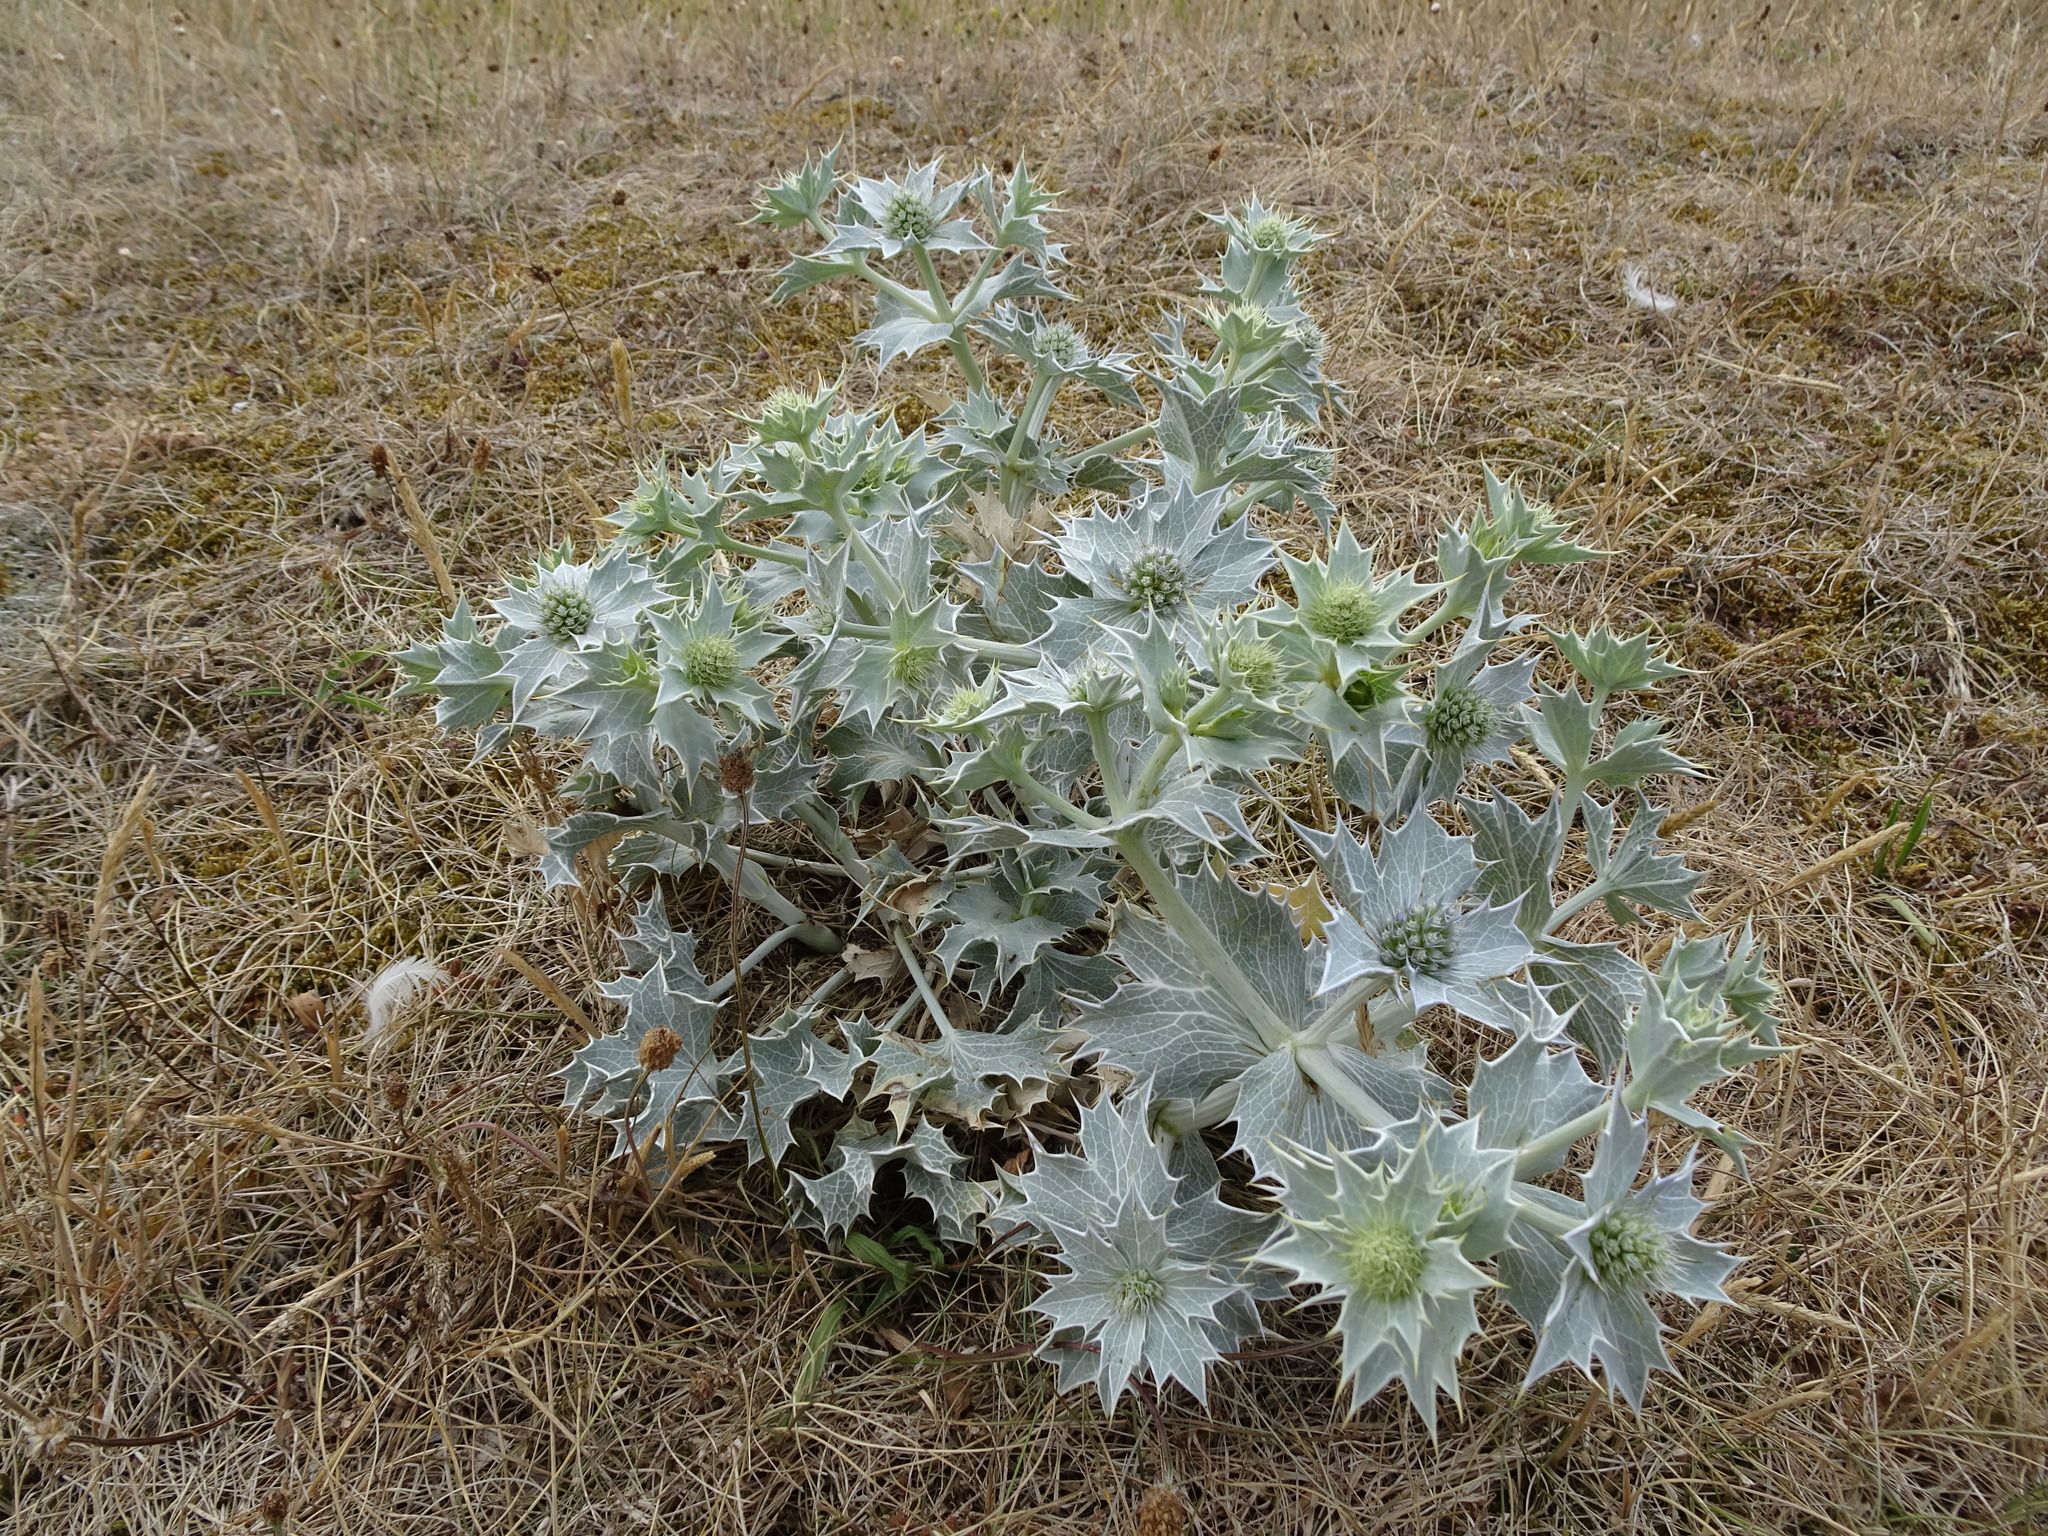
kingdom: Plantae
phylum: Tracheophyta
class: Magnoliopsida
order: Apiales
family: Apiaceae
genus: Eryngium
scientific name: Eryngium maritimum
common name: Sea-holly
